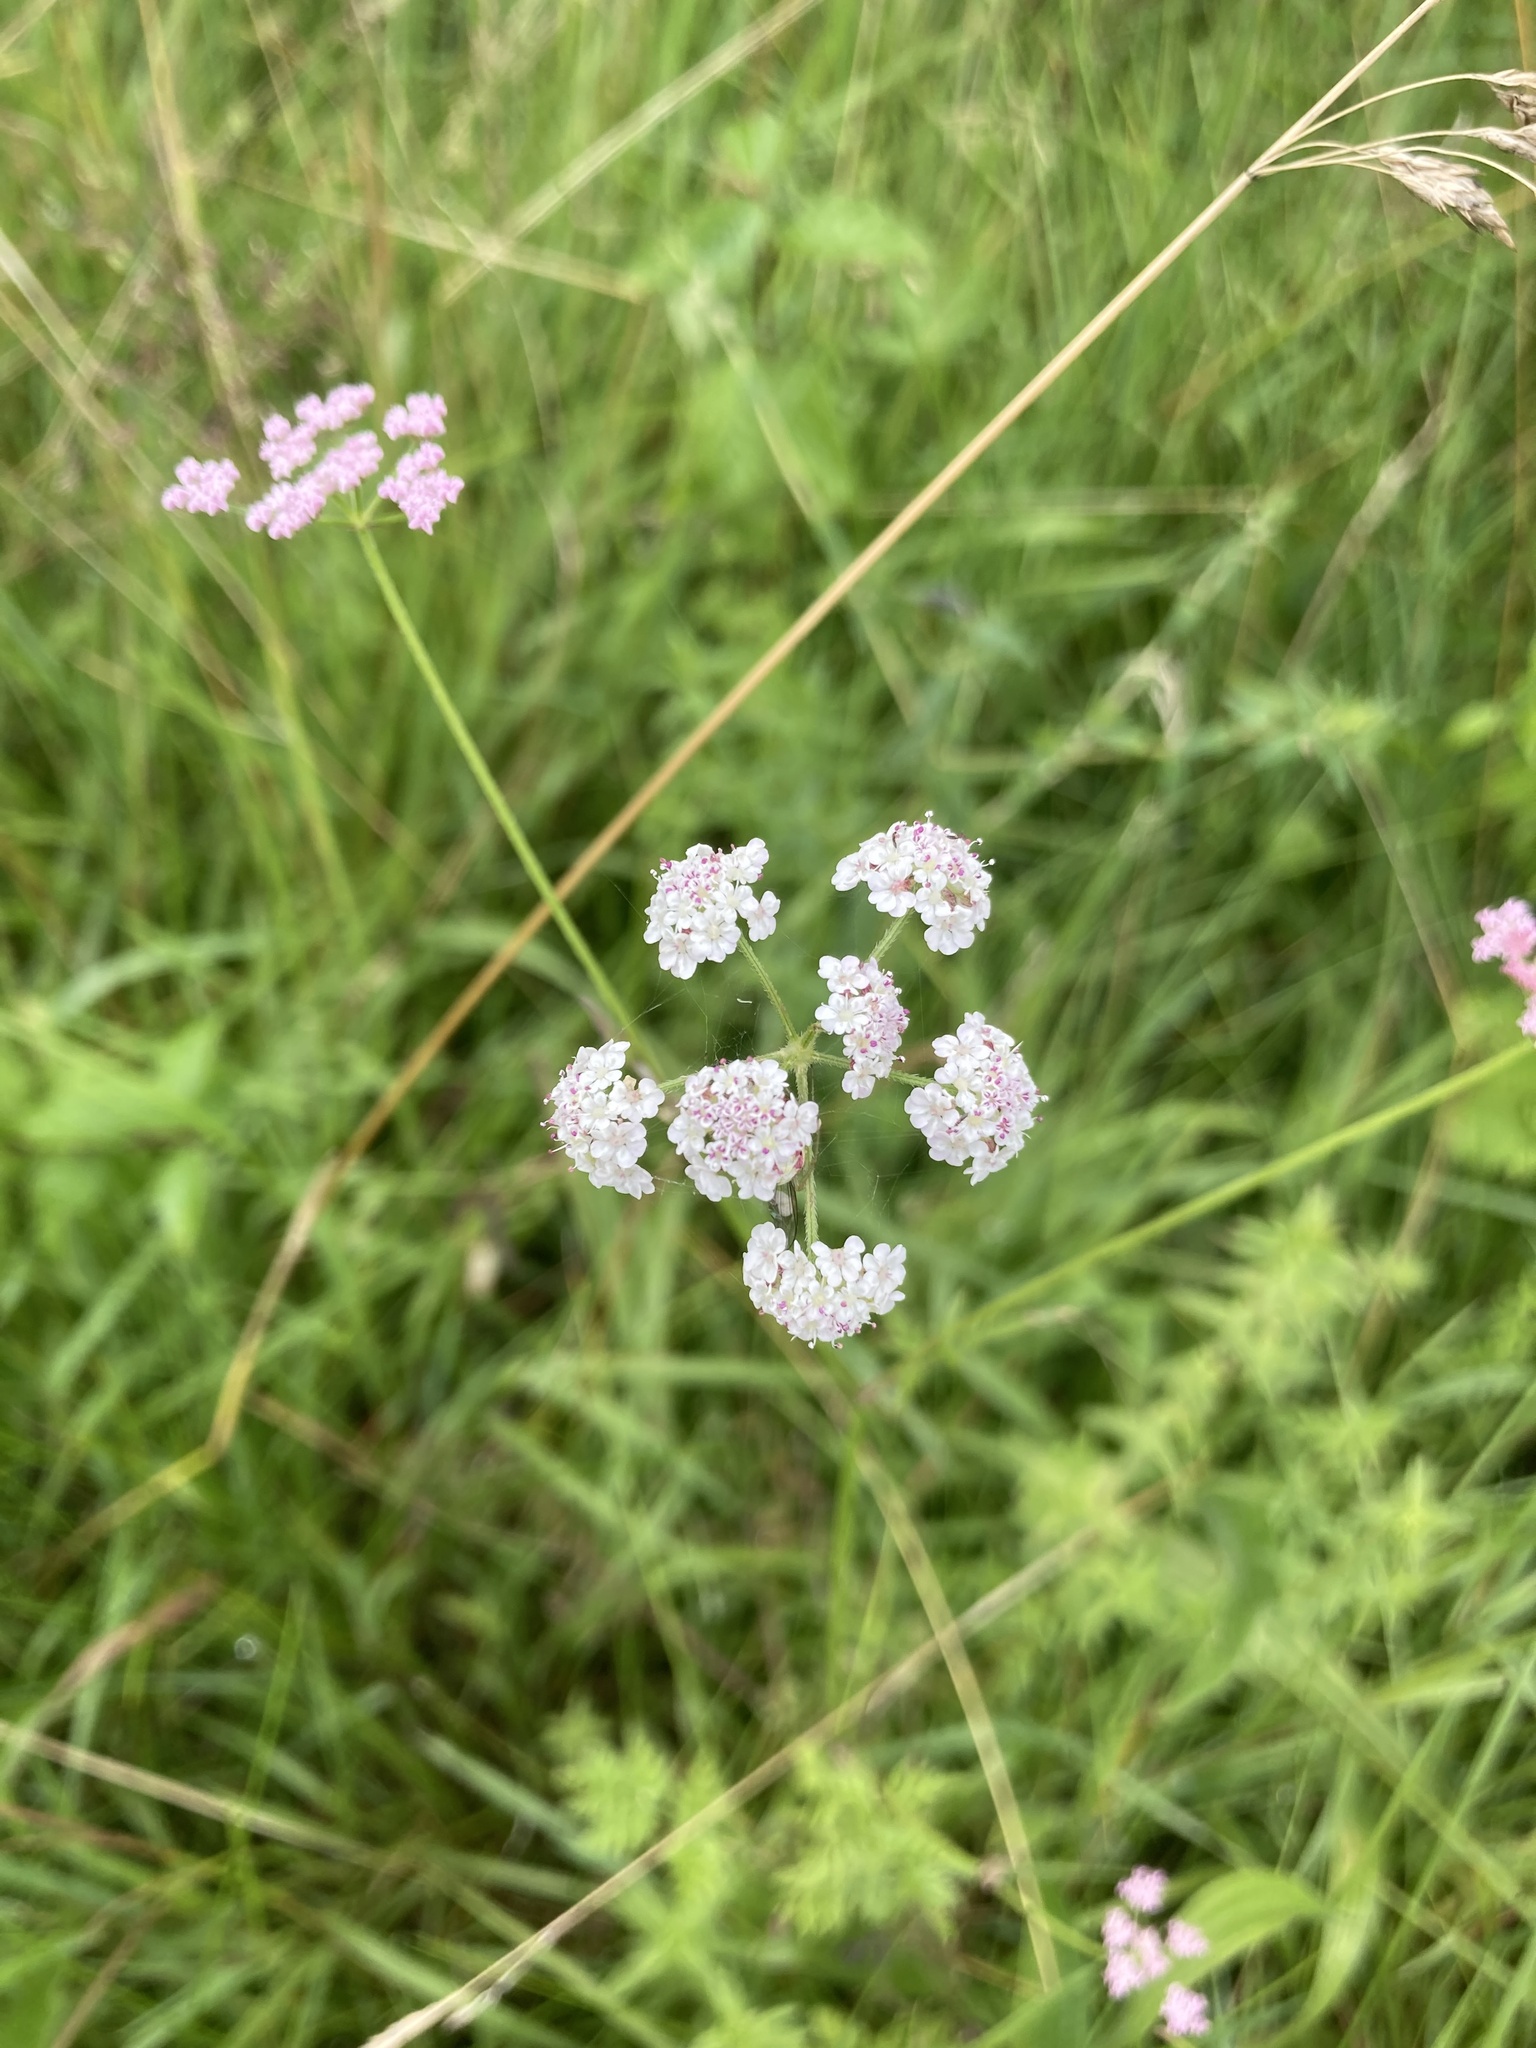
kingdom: Plantae
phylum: Tracheophyta
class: Magnoliopsida
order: Apiales
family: Apiaceae
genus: Torilis
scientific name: Torilis japonica
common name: Upright hedge-parsley
